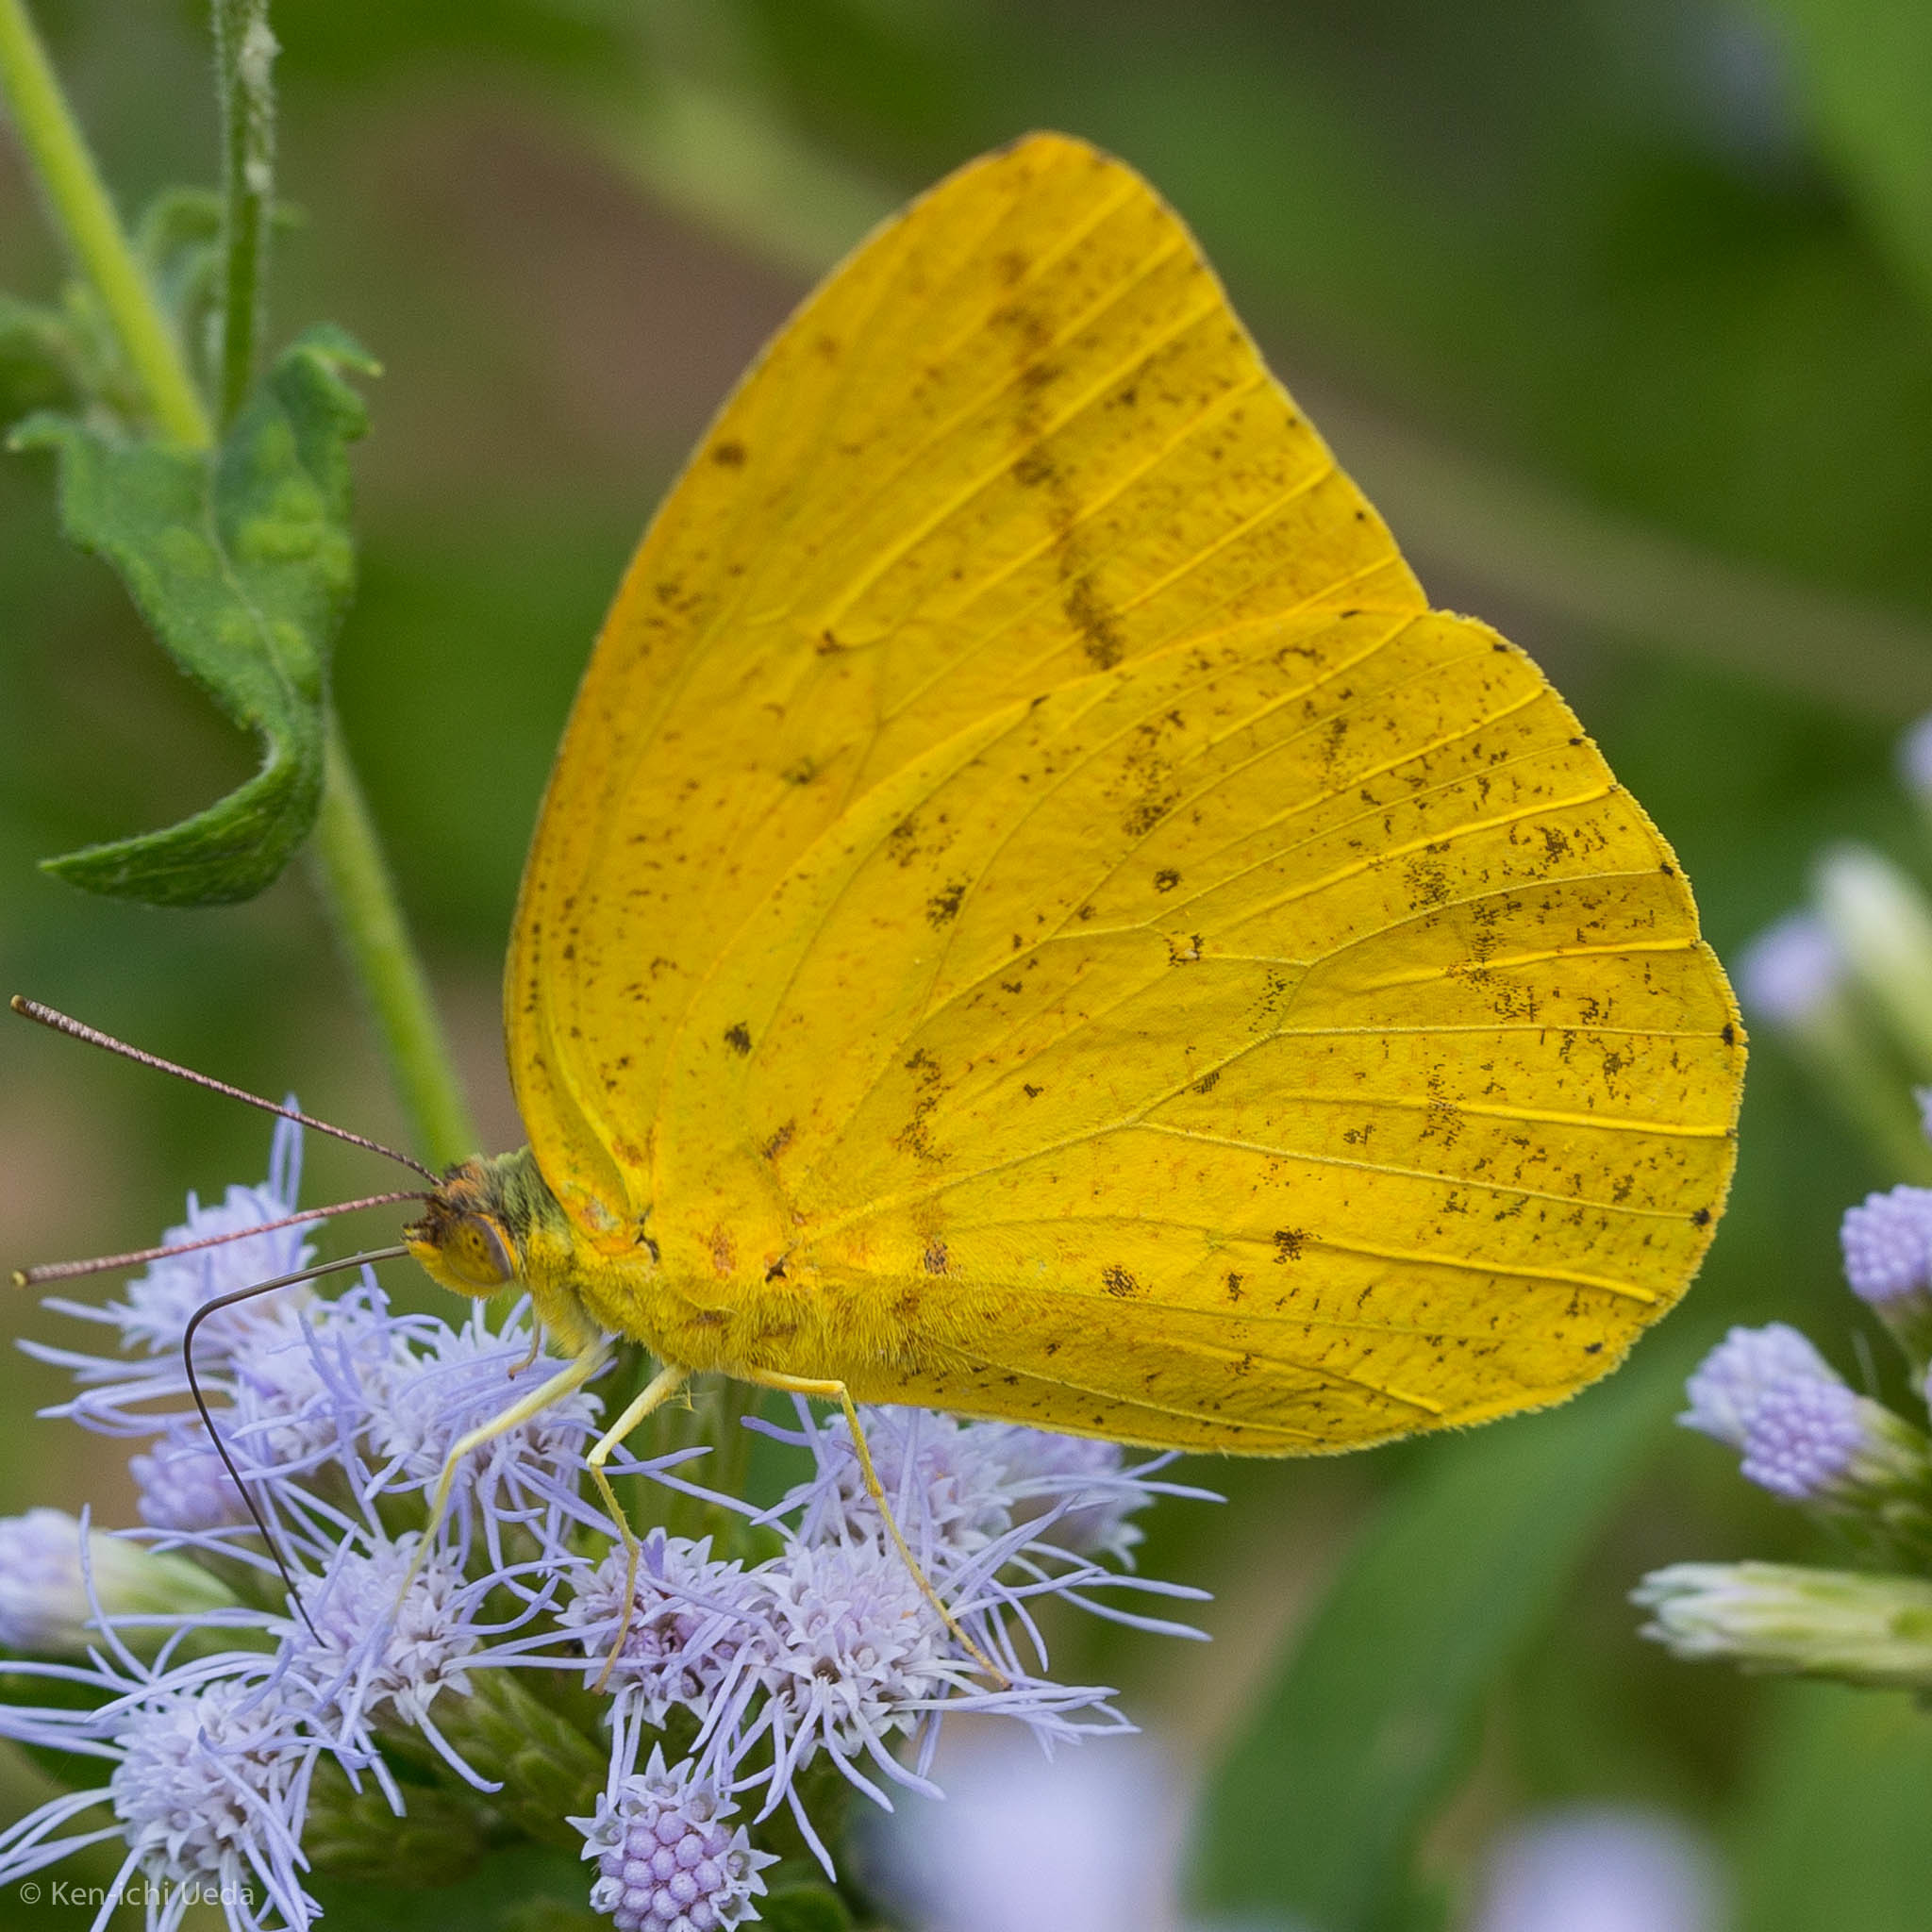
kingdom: Animalia
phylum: Arthropoda
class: Insecta
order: Lepidoptera
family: Pieridae
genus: Phoebis
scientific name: Phoebis agarithe
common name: Large orange sulphur
